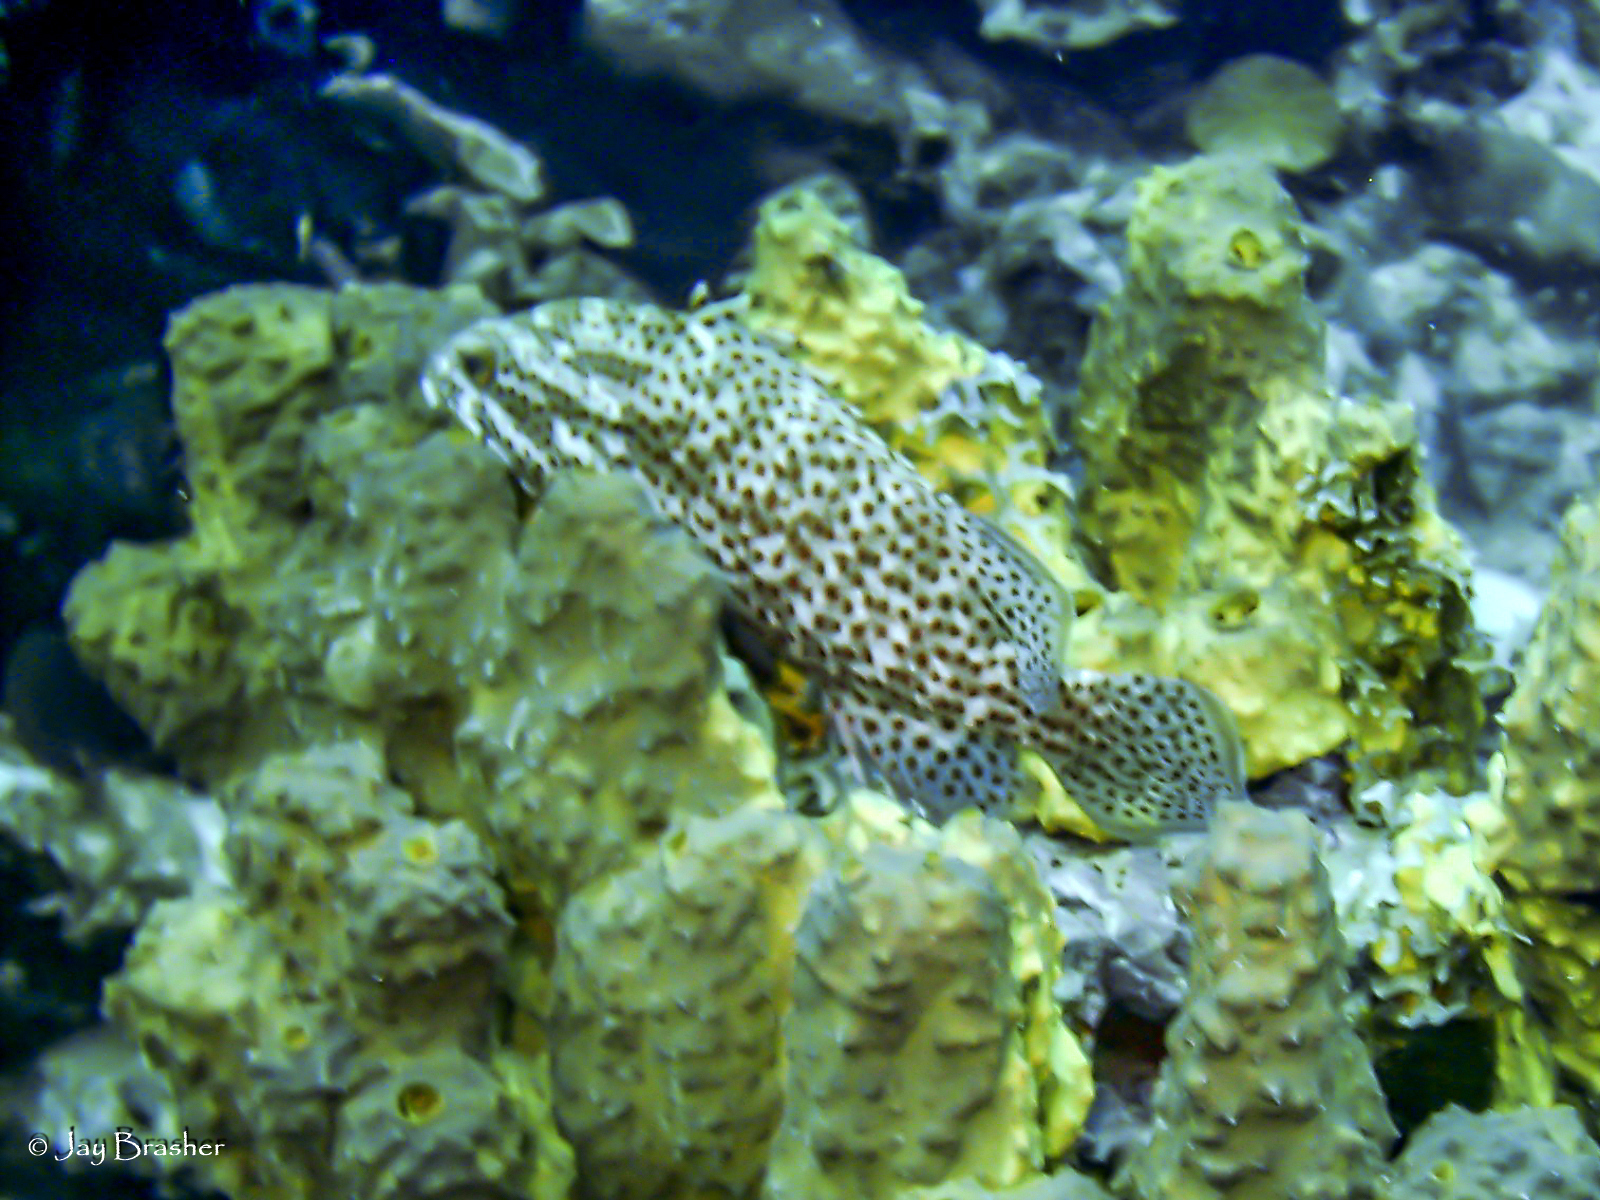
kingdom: Animalia
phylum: Chordata
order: Perciformes
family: Serranidae
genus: Cephalopholis
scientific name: Cephalopholis cruentata
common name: Graysby
